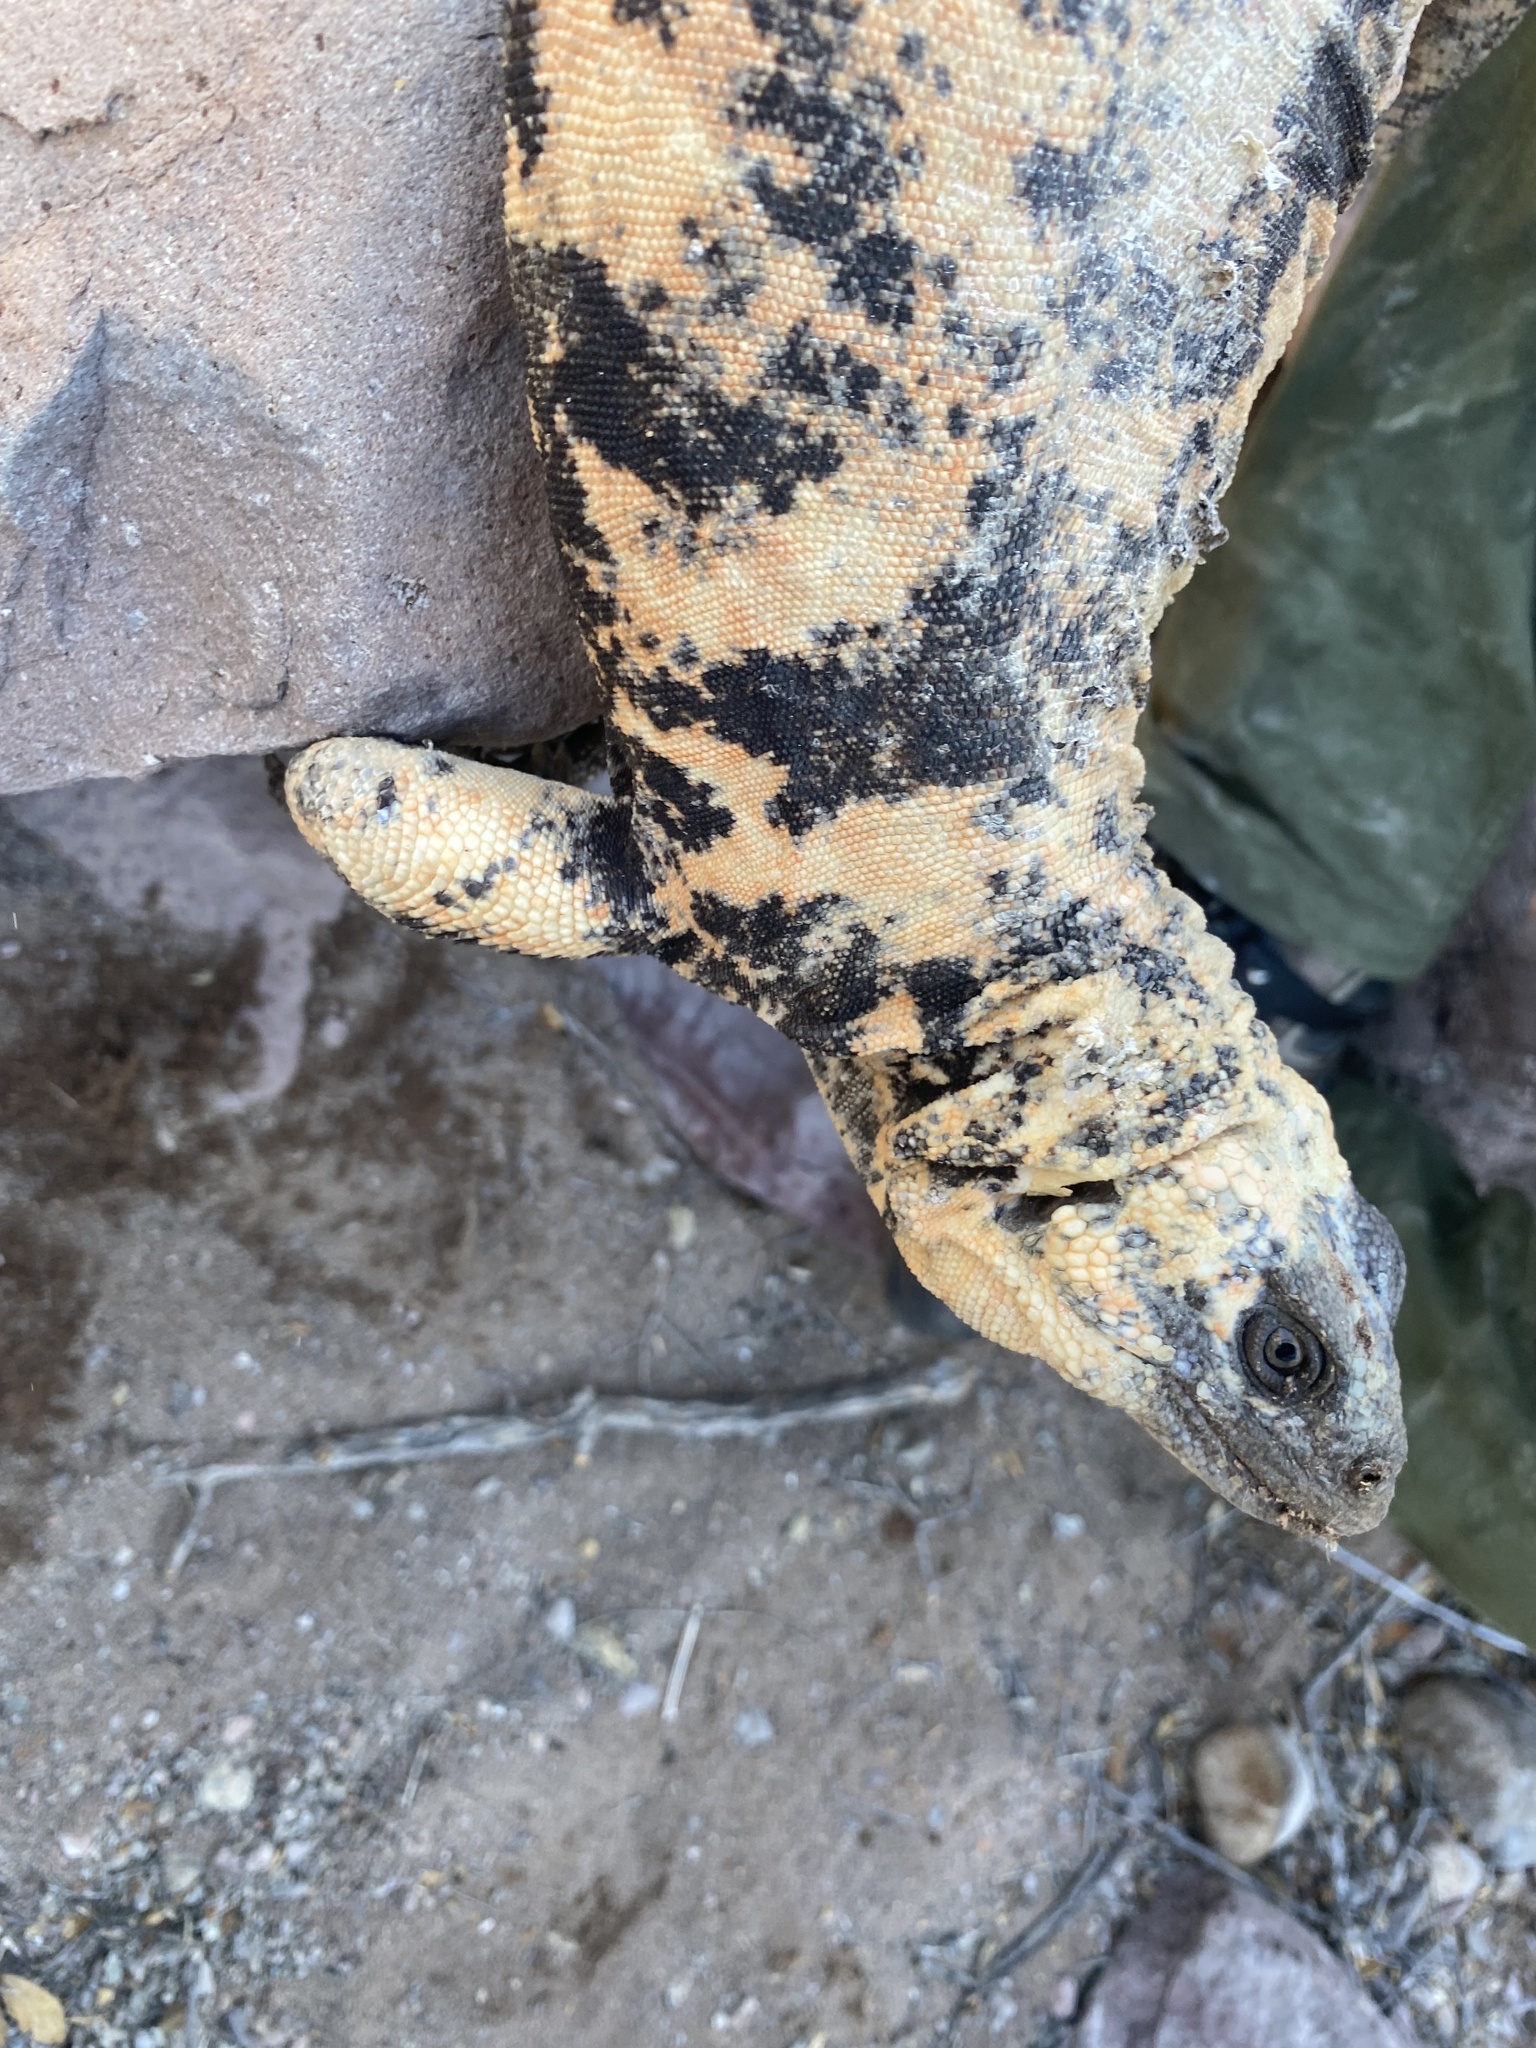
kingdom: Animalia
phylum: Chordata
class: Squamata
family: Iguanidae
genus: Sauromalus
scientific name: Sauromalus varius
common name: Piebald chuckwalla
